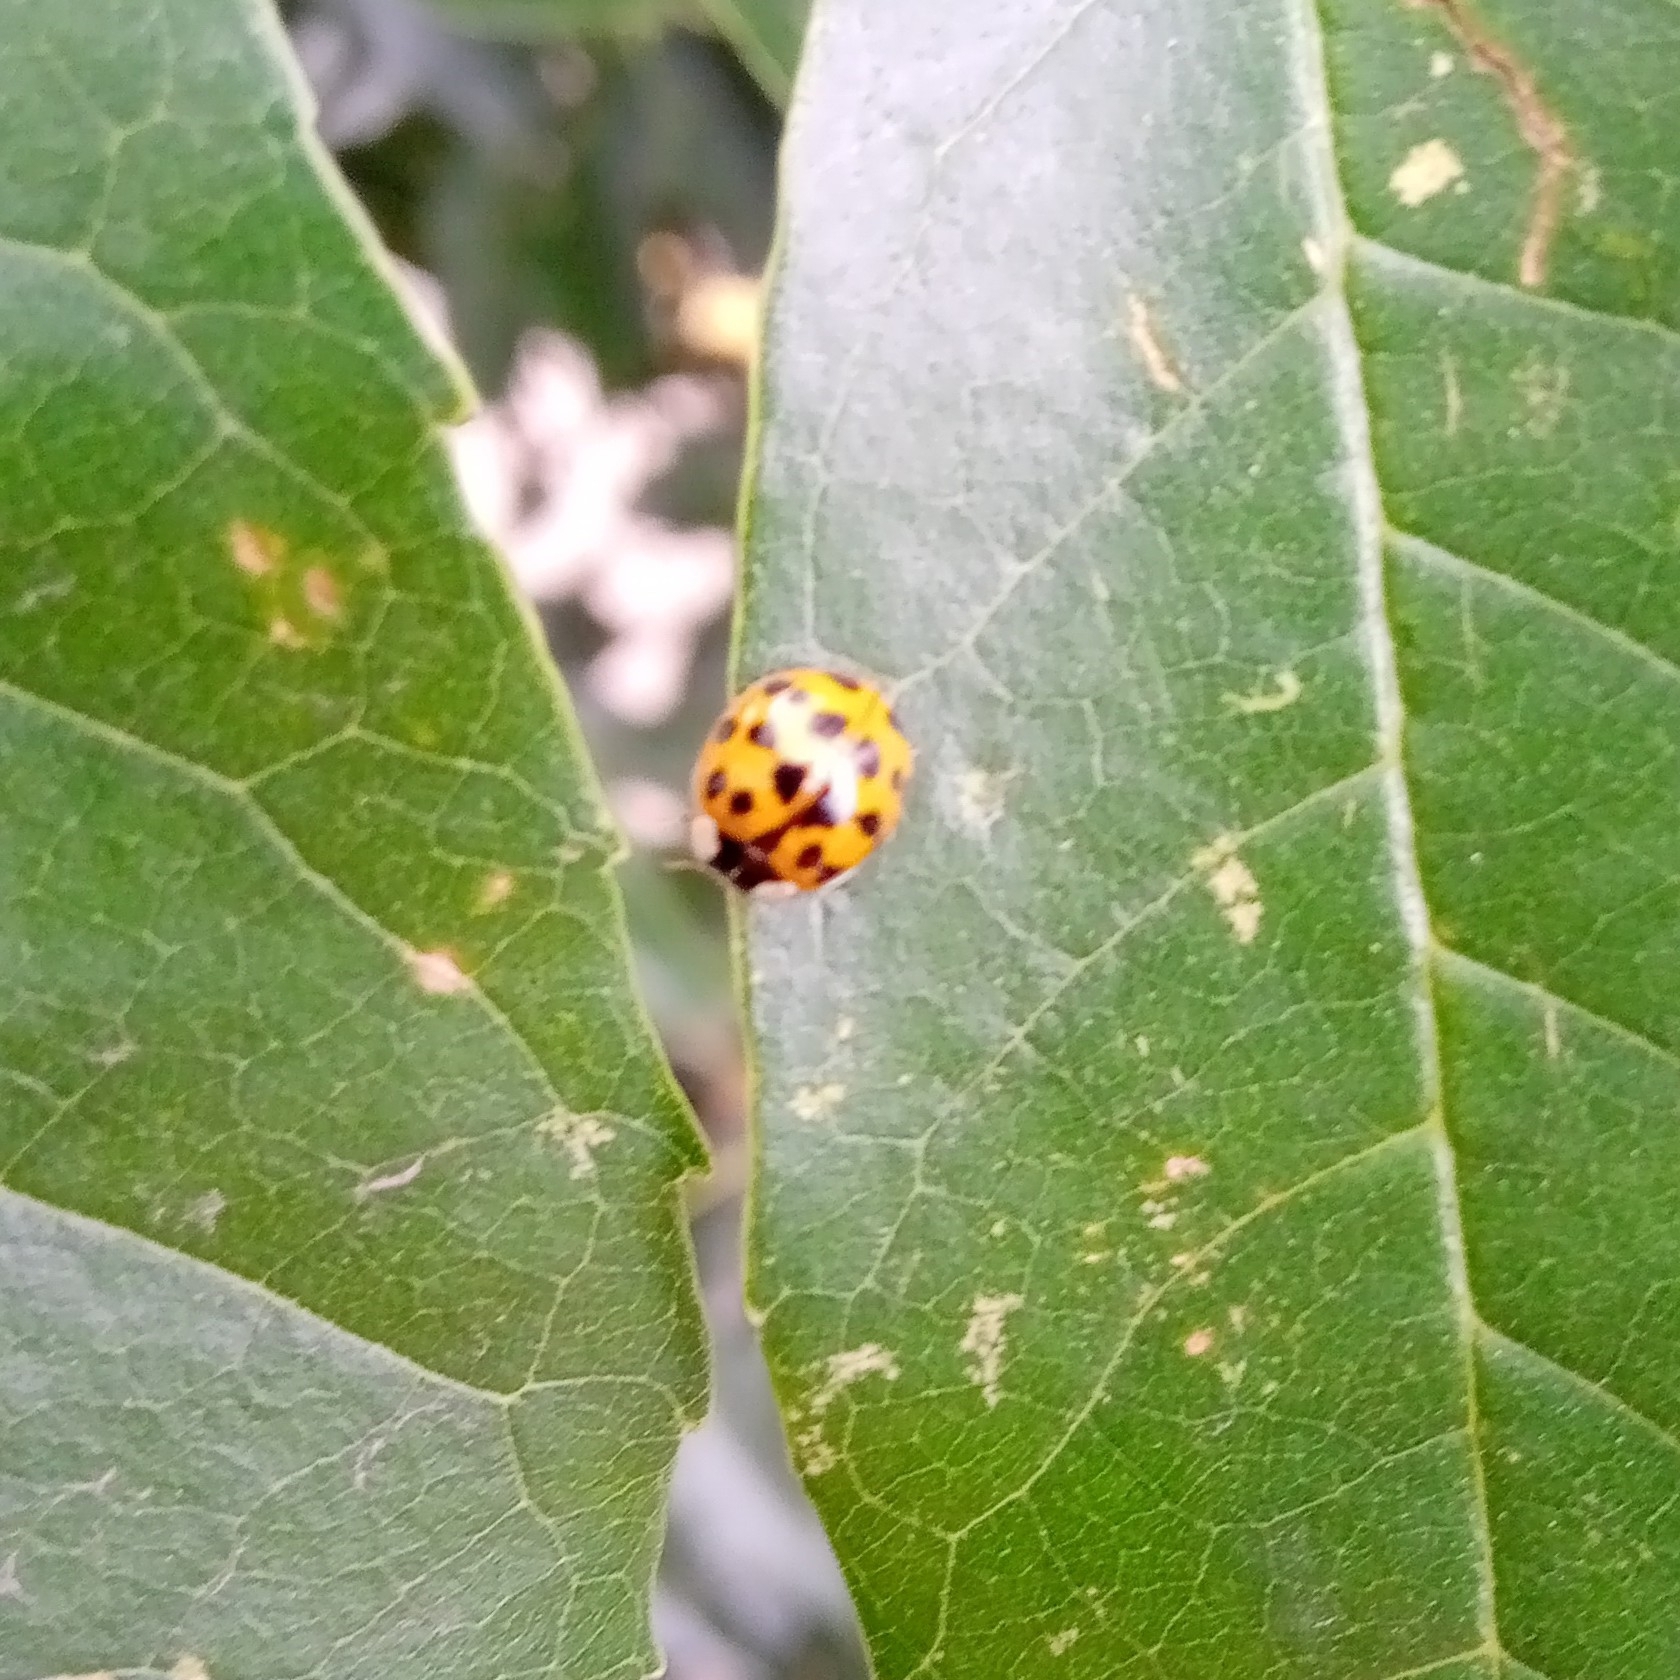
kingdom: Animalia
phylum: Arthropoda
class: Insecta
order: Coleoptera
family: Coccinellidae
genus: Harmonia
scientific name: Harmonia axyridis
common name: Harlequin ladybird
